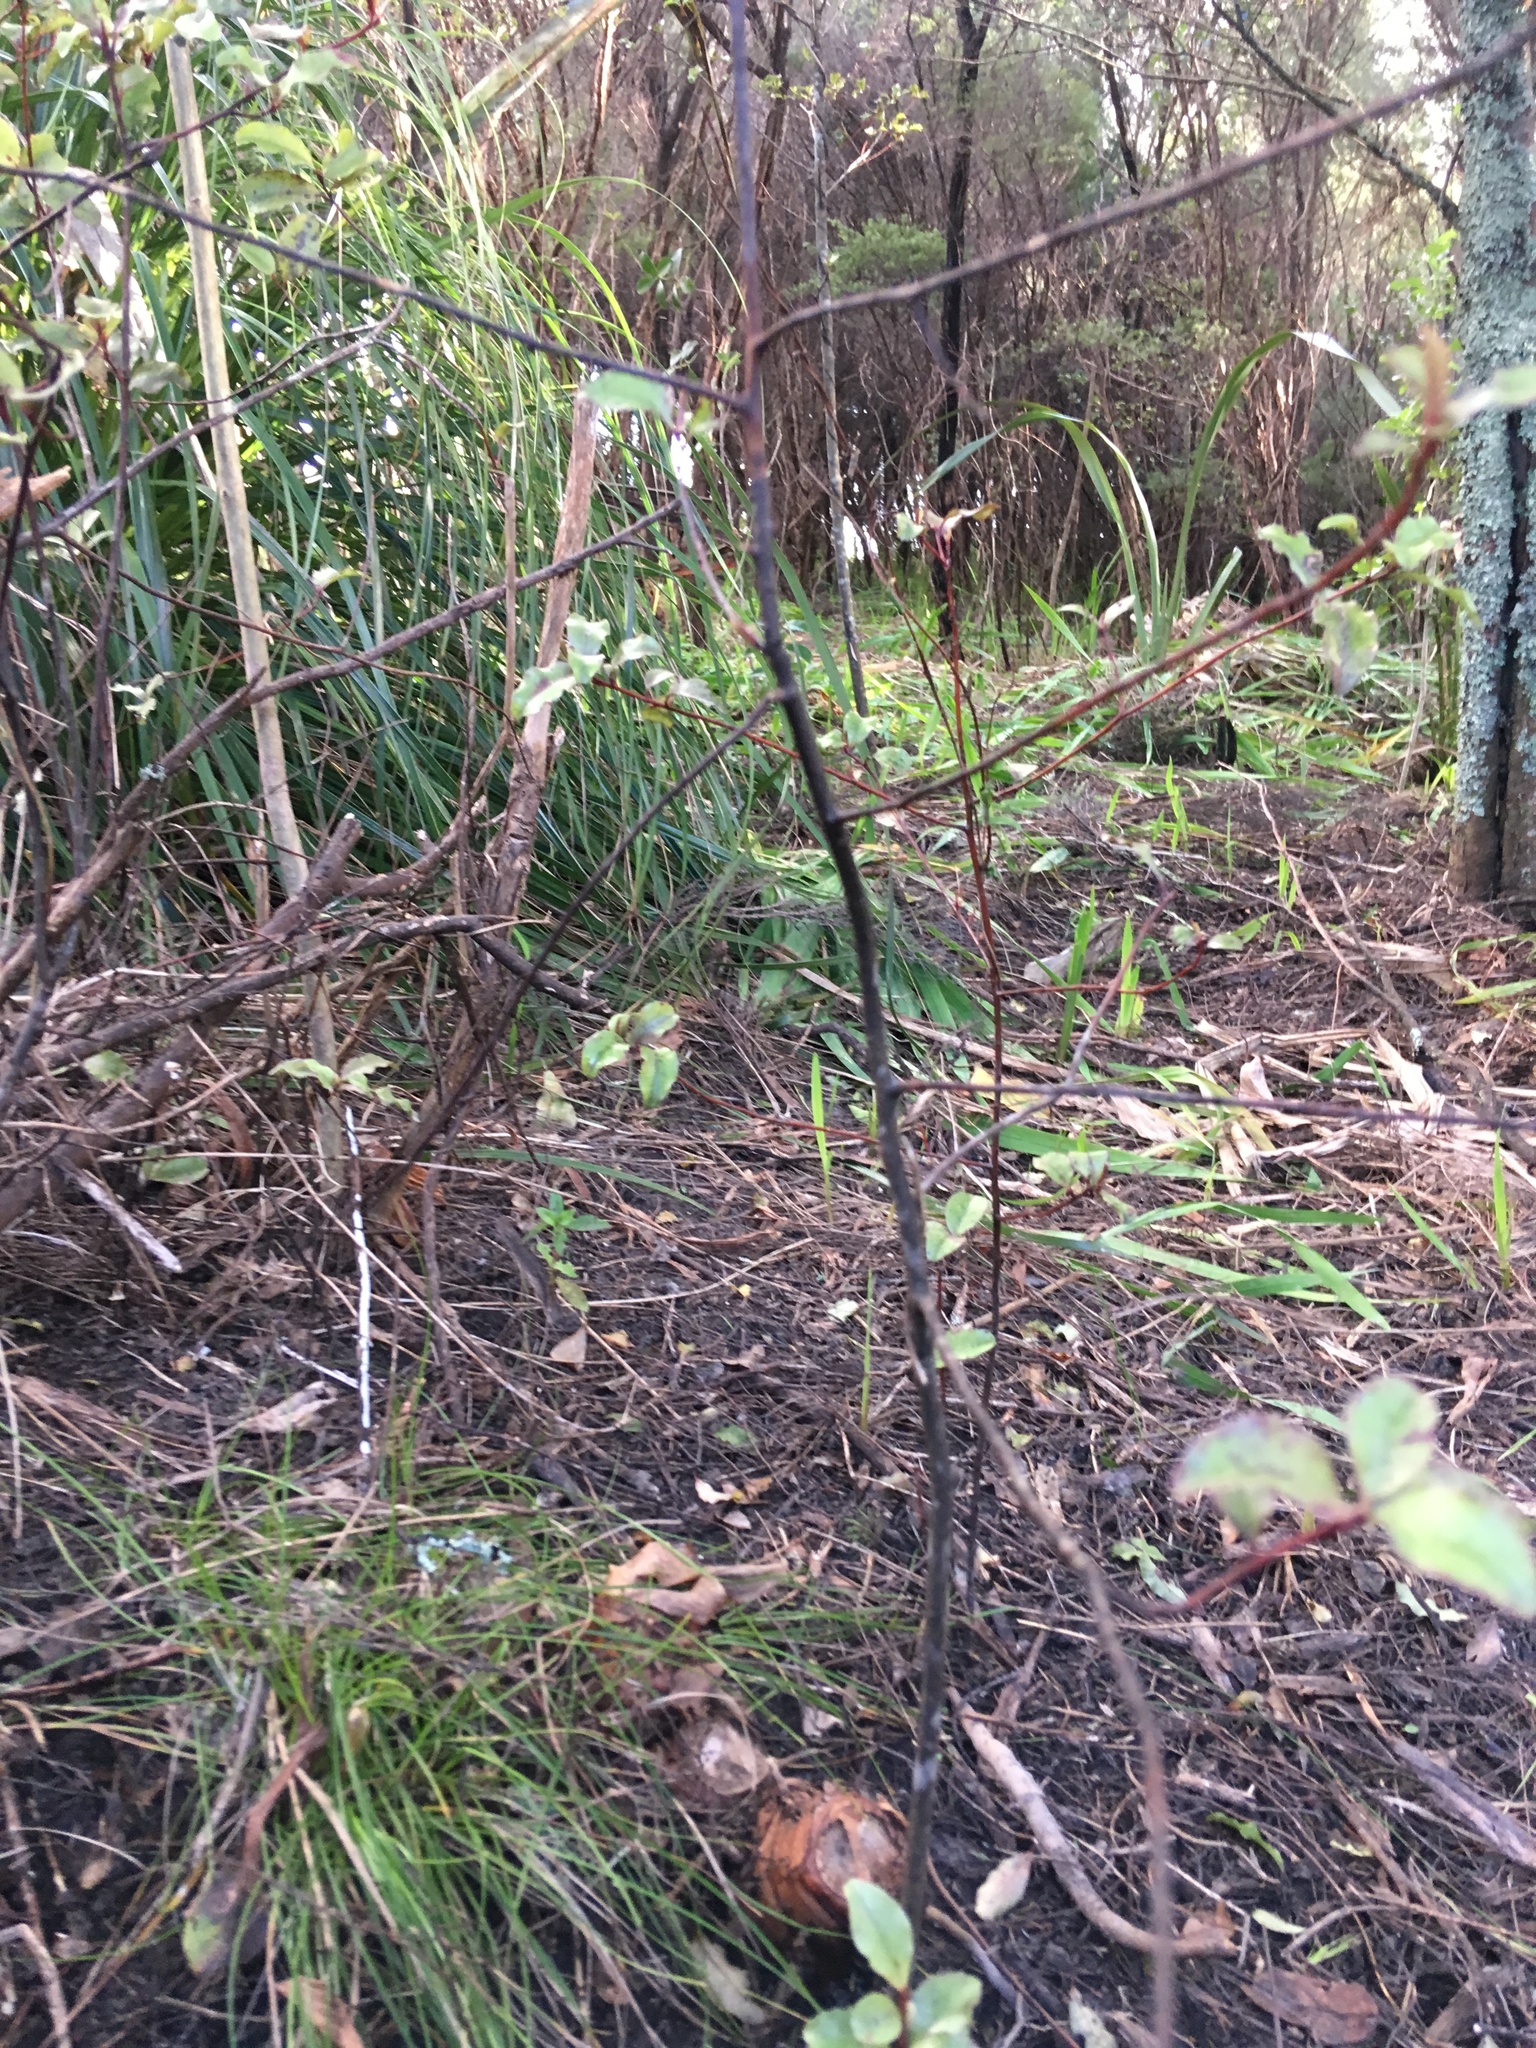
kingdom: Plantae
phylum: Tracheophyta
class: Liliopsida
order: Zingiberales
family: Zingiberaceae
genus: Hedychium
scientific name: Hedychium gardnerianum
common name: Himalayan ginger
